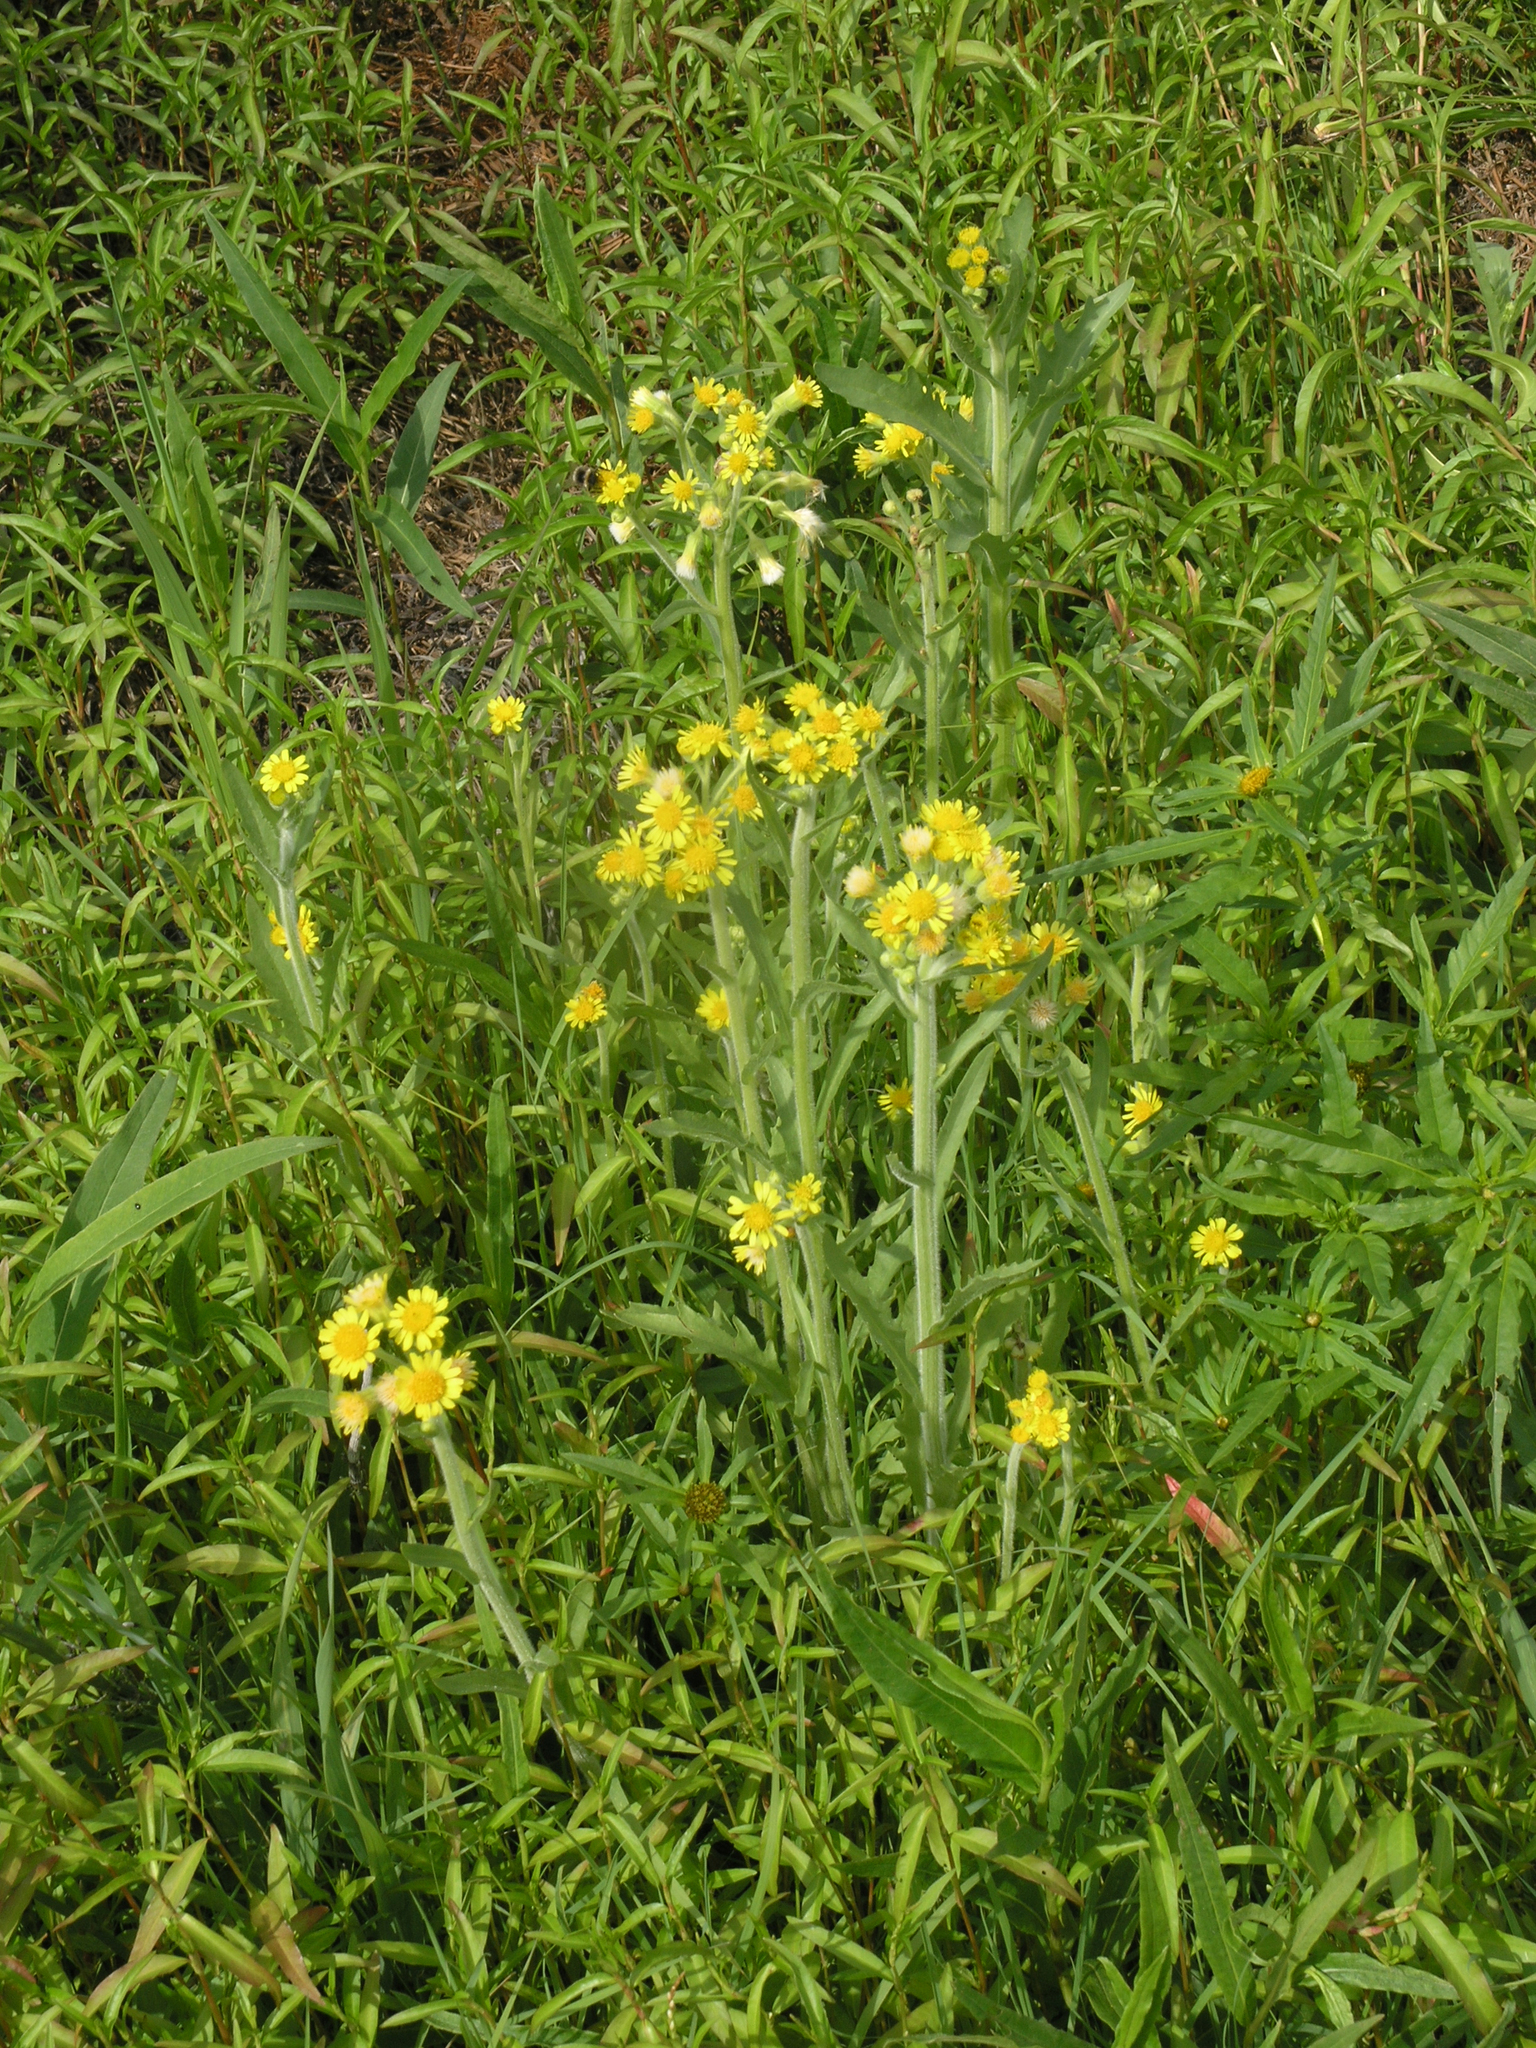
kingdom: Plantae
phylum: Tracheophyta
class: Magnoliopsida
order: Asterales
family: Asteraceae
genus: Tephroseris
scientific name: Tephroseris palustris
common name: Marsh fleawort
